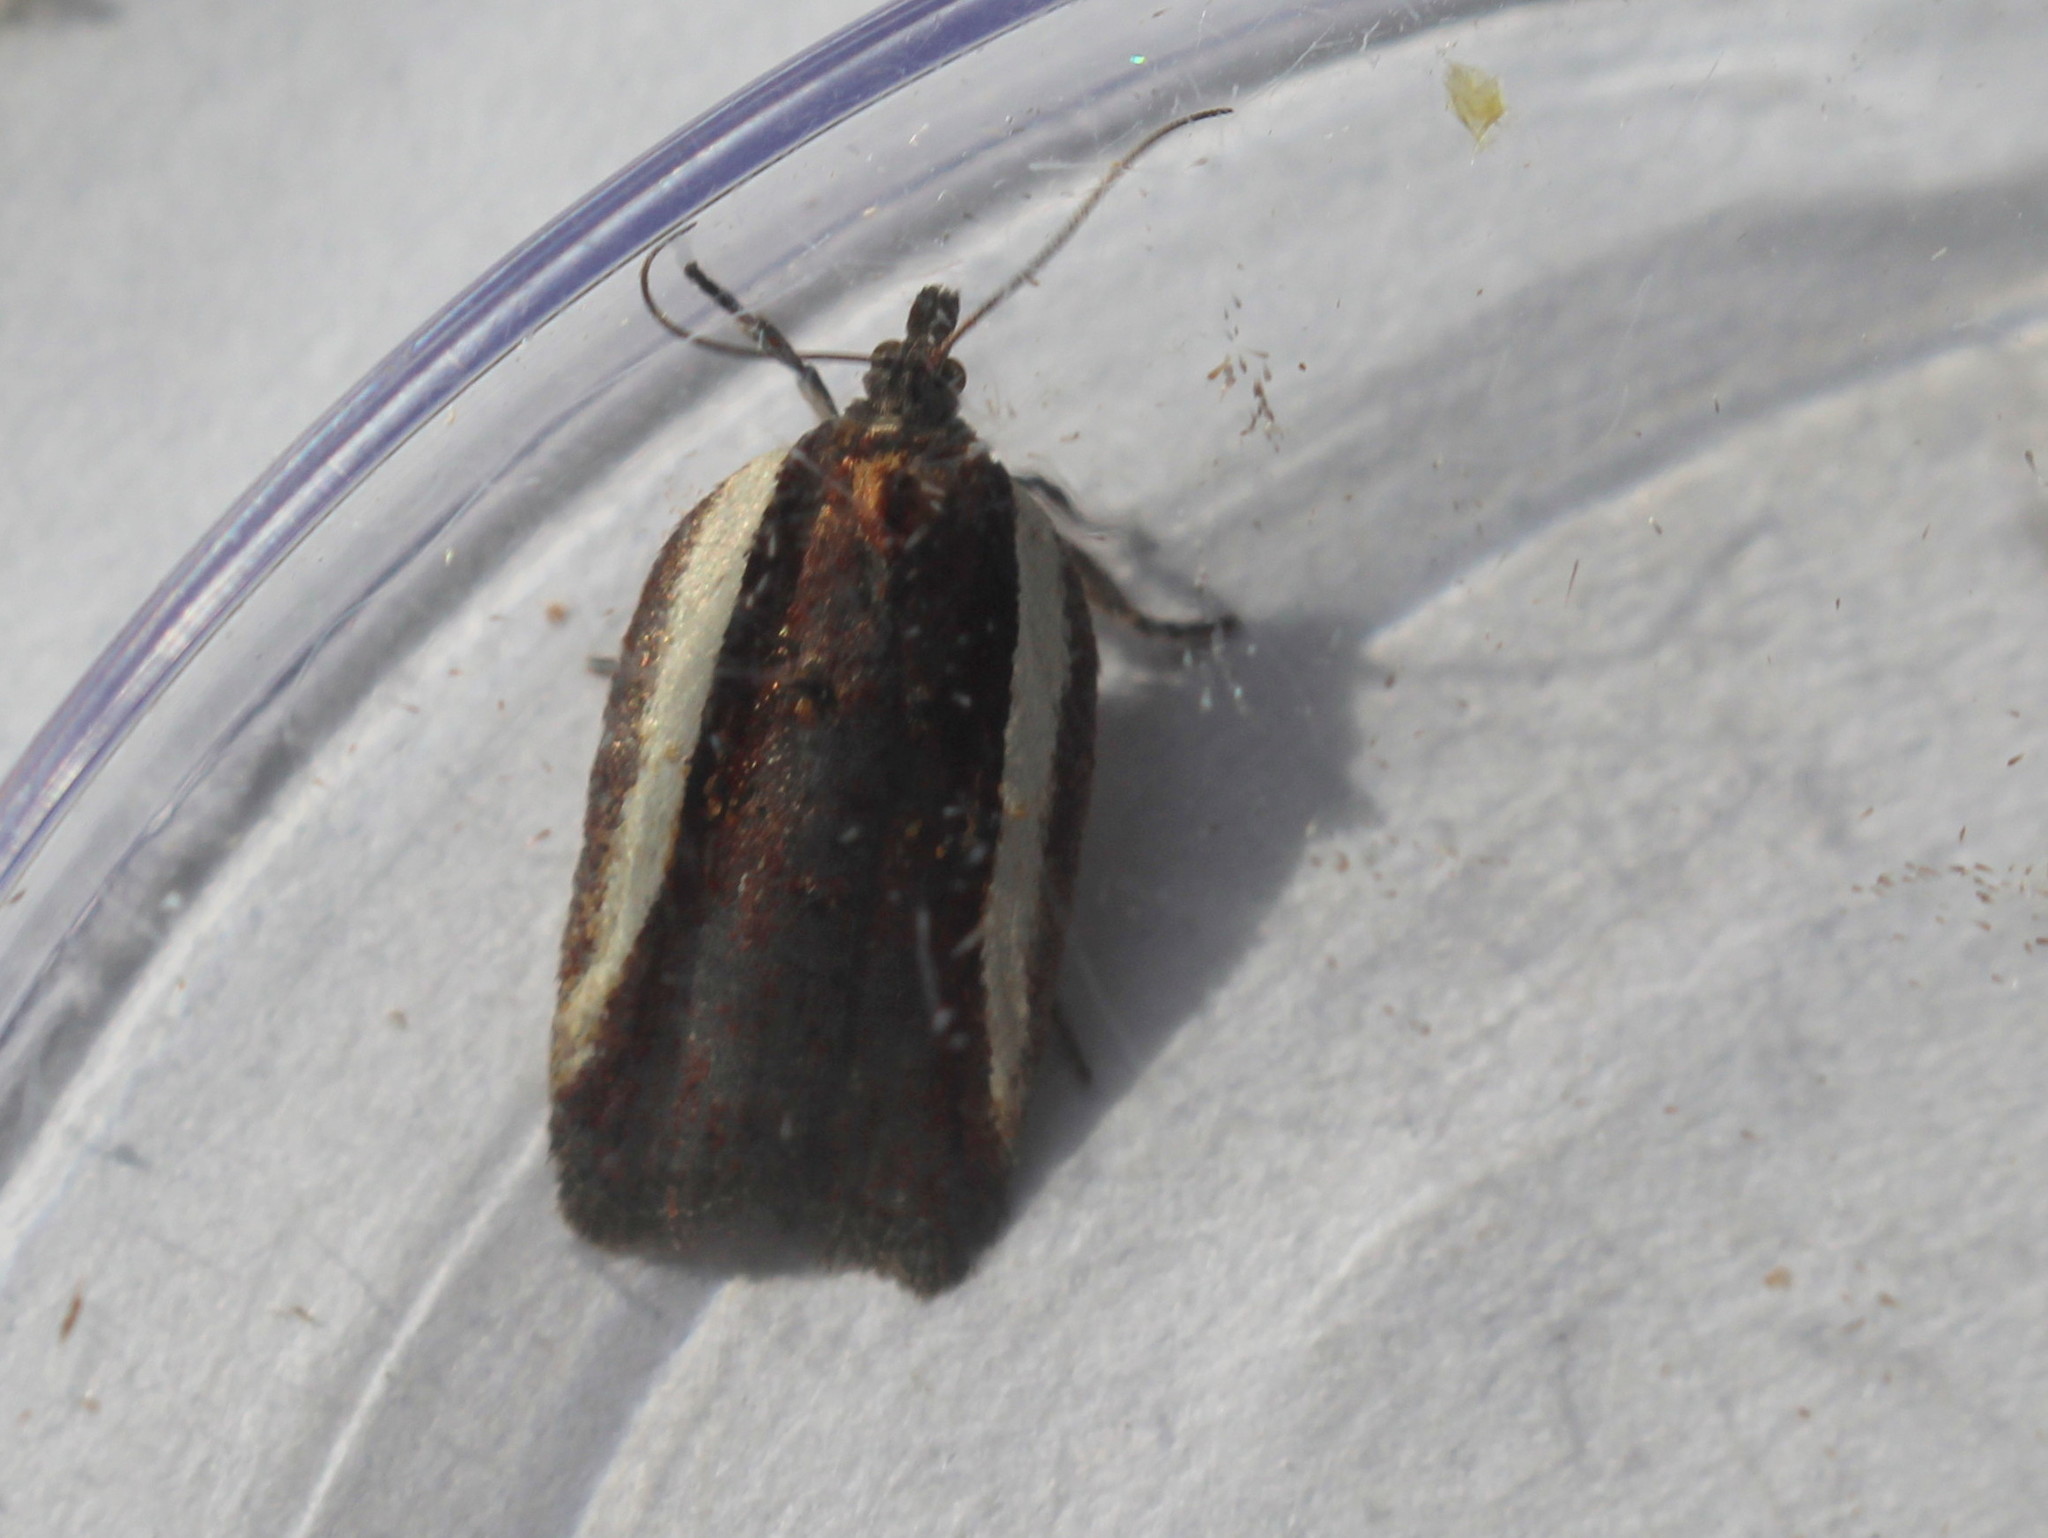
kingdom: Animalia
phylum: Arthropoda
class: Insecta
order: Lepidoptera
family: Tortricidae
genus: Acleris
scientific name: Acleris celiana
